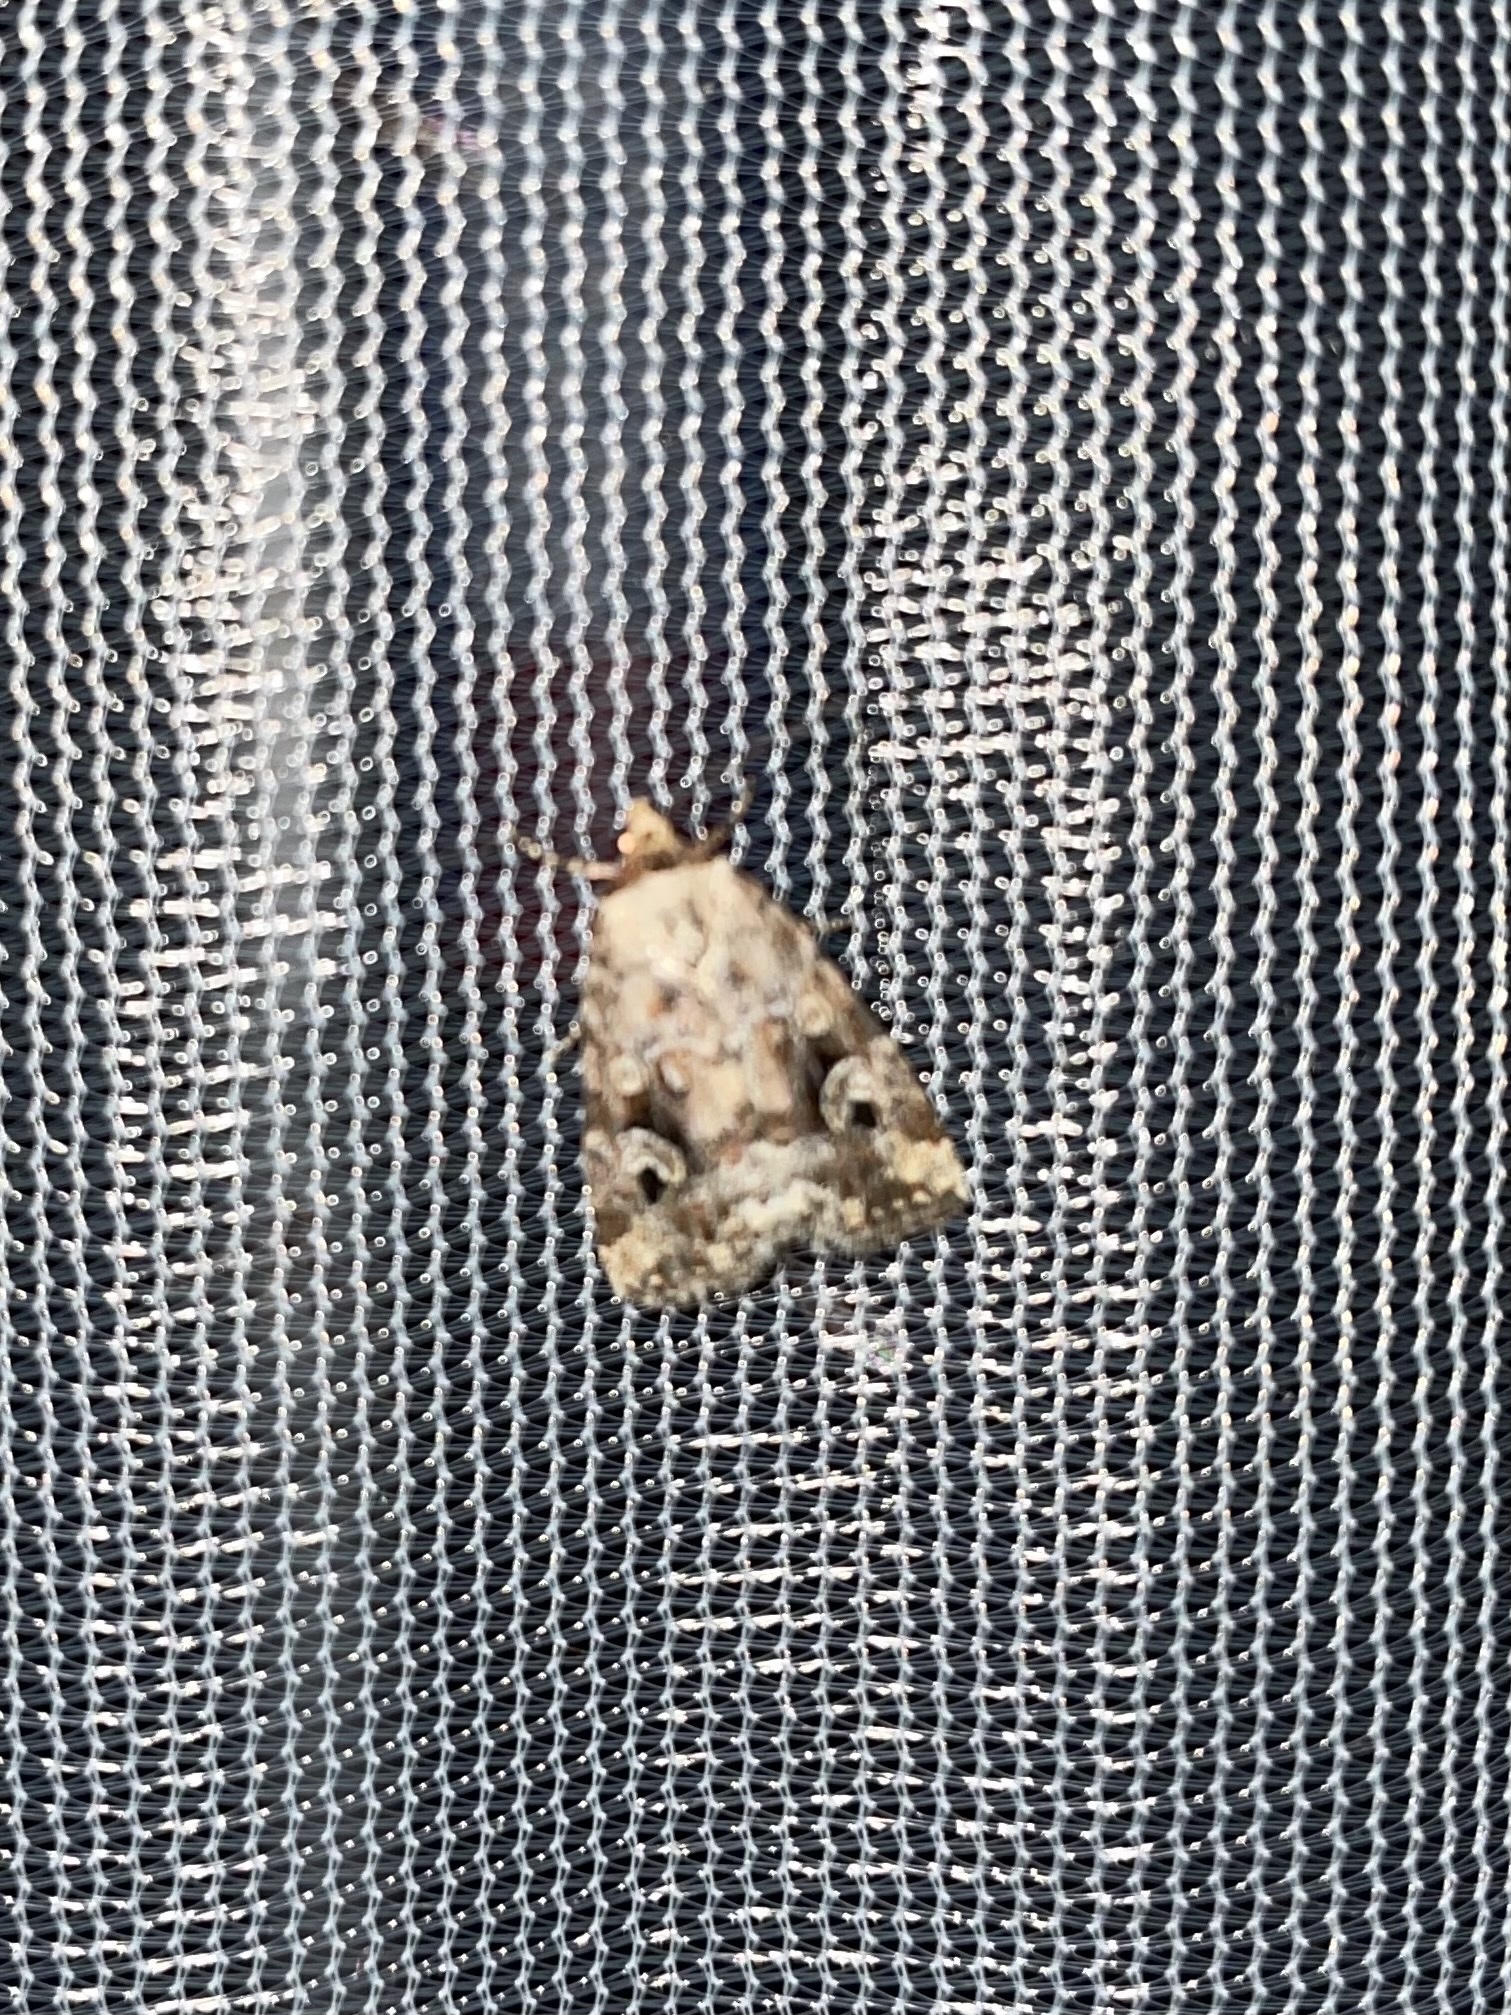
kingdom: Animalia
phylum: Arthropoda
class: Insecta
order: Lepidoptera
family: Noctuidae
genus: Elaphria
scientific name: Elaphria alapallida
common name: Pale-winged midget
